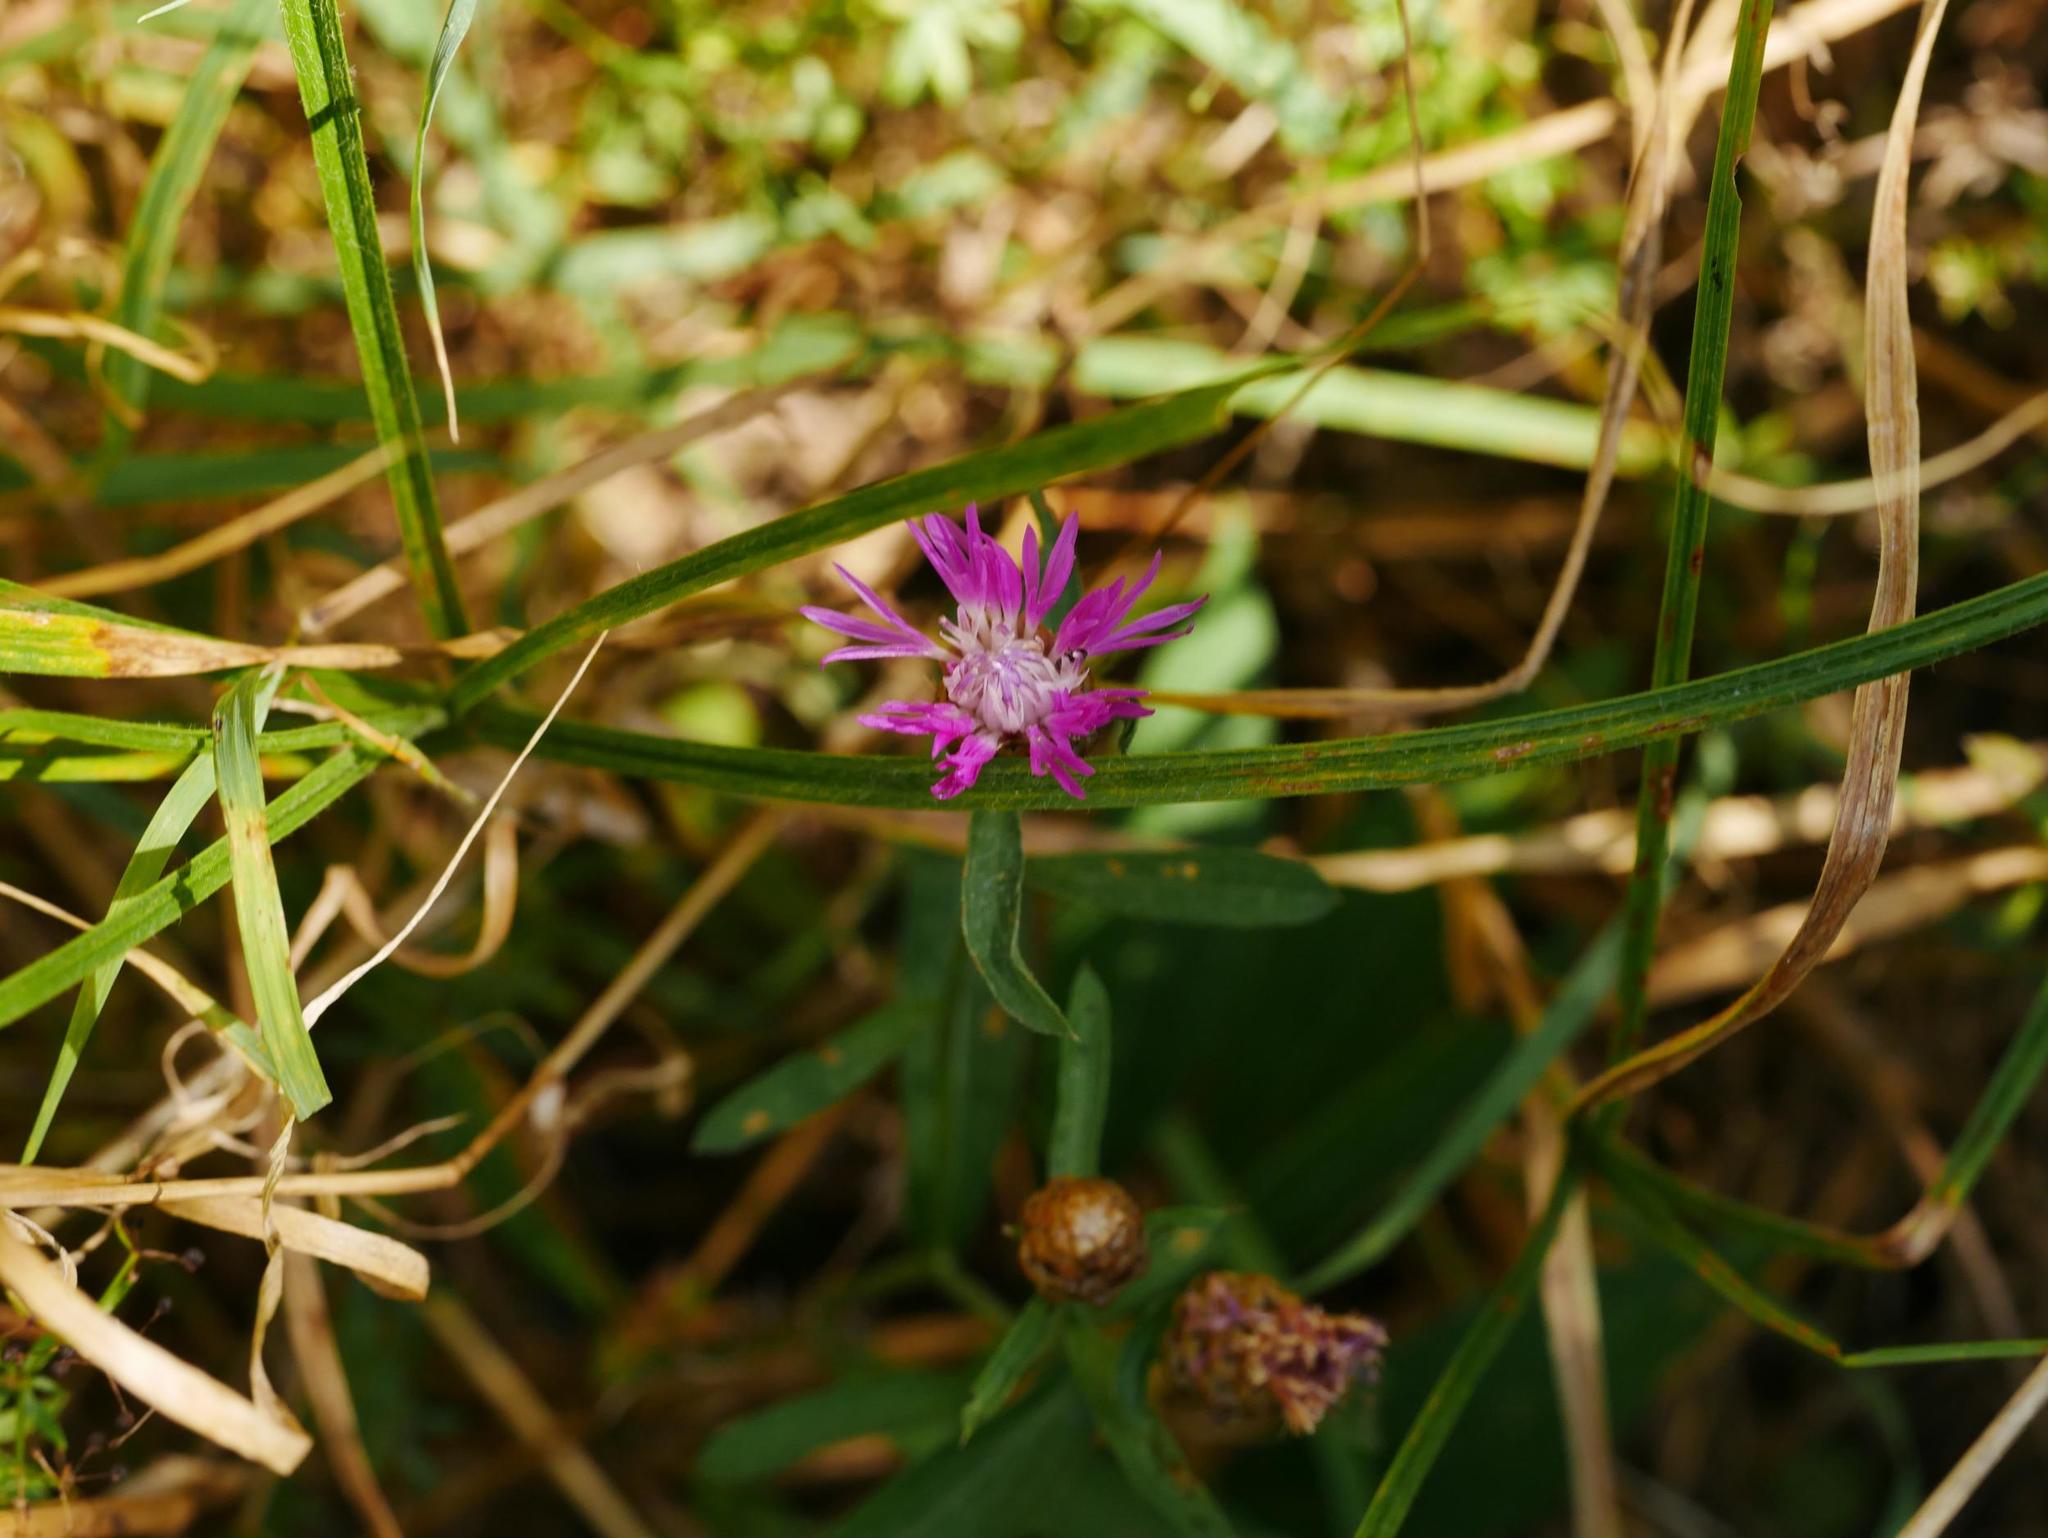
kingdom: Plantae
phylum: Tracheophyta
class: Magnoliopsida
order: Asterales
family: Asteraceae
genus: Centaurea
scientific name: Centaurea jacea
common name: Brown knapweed
